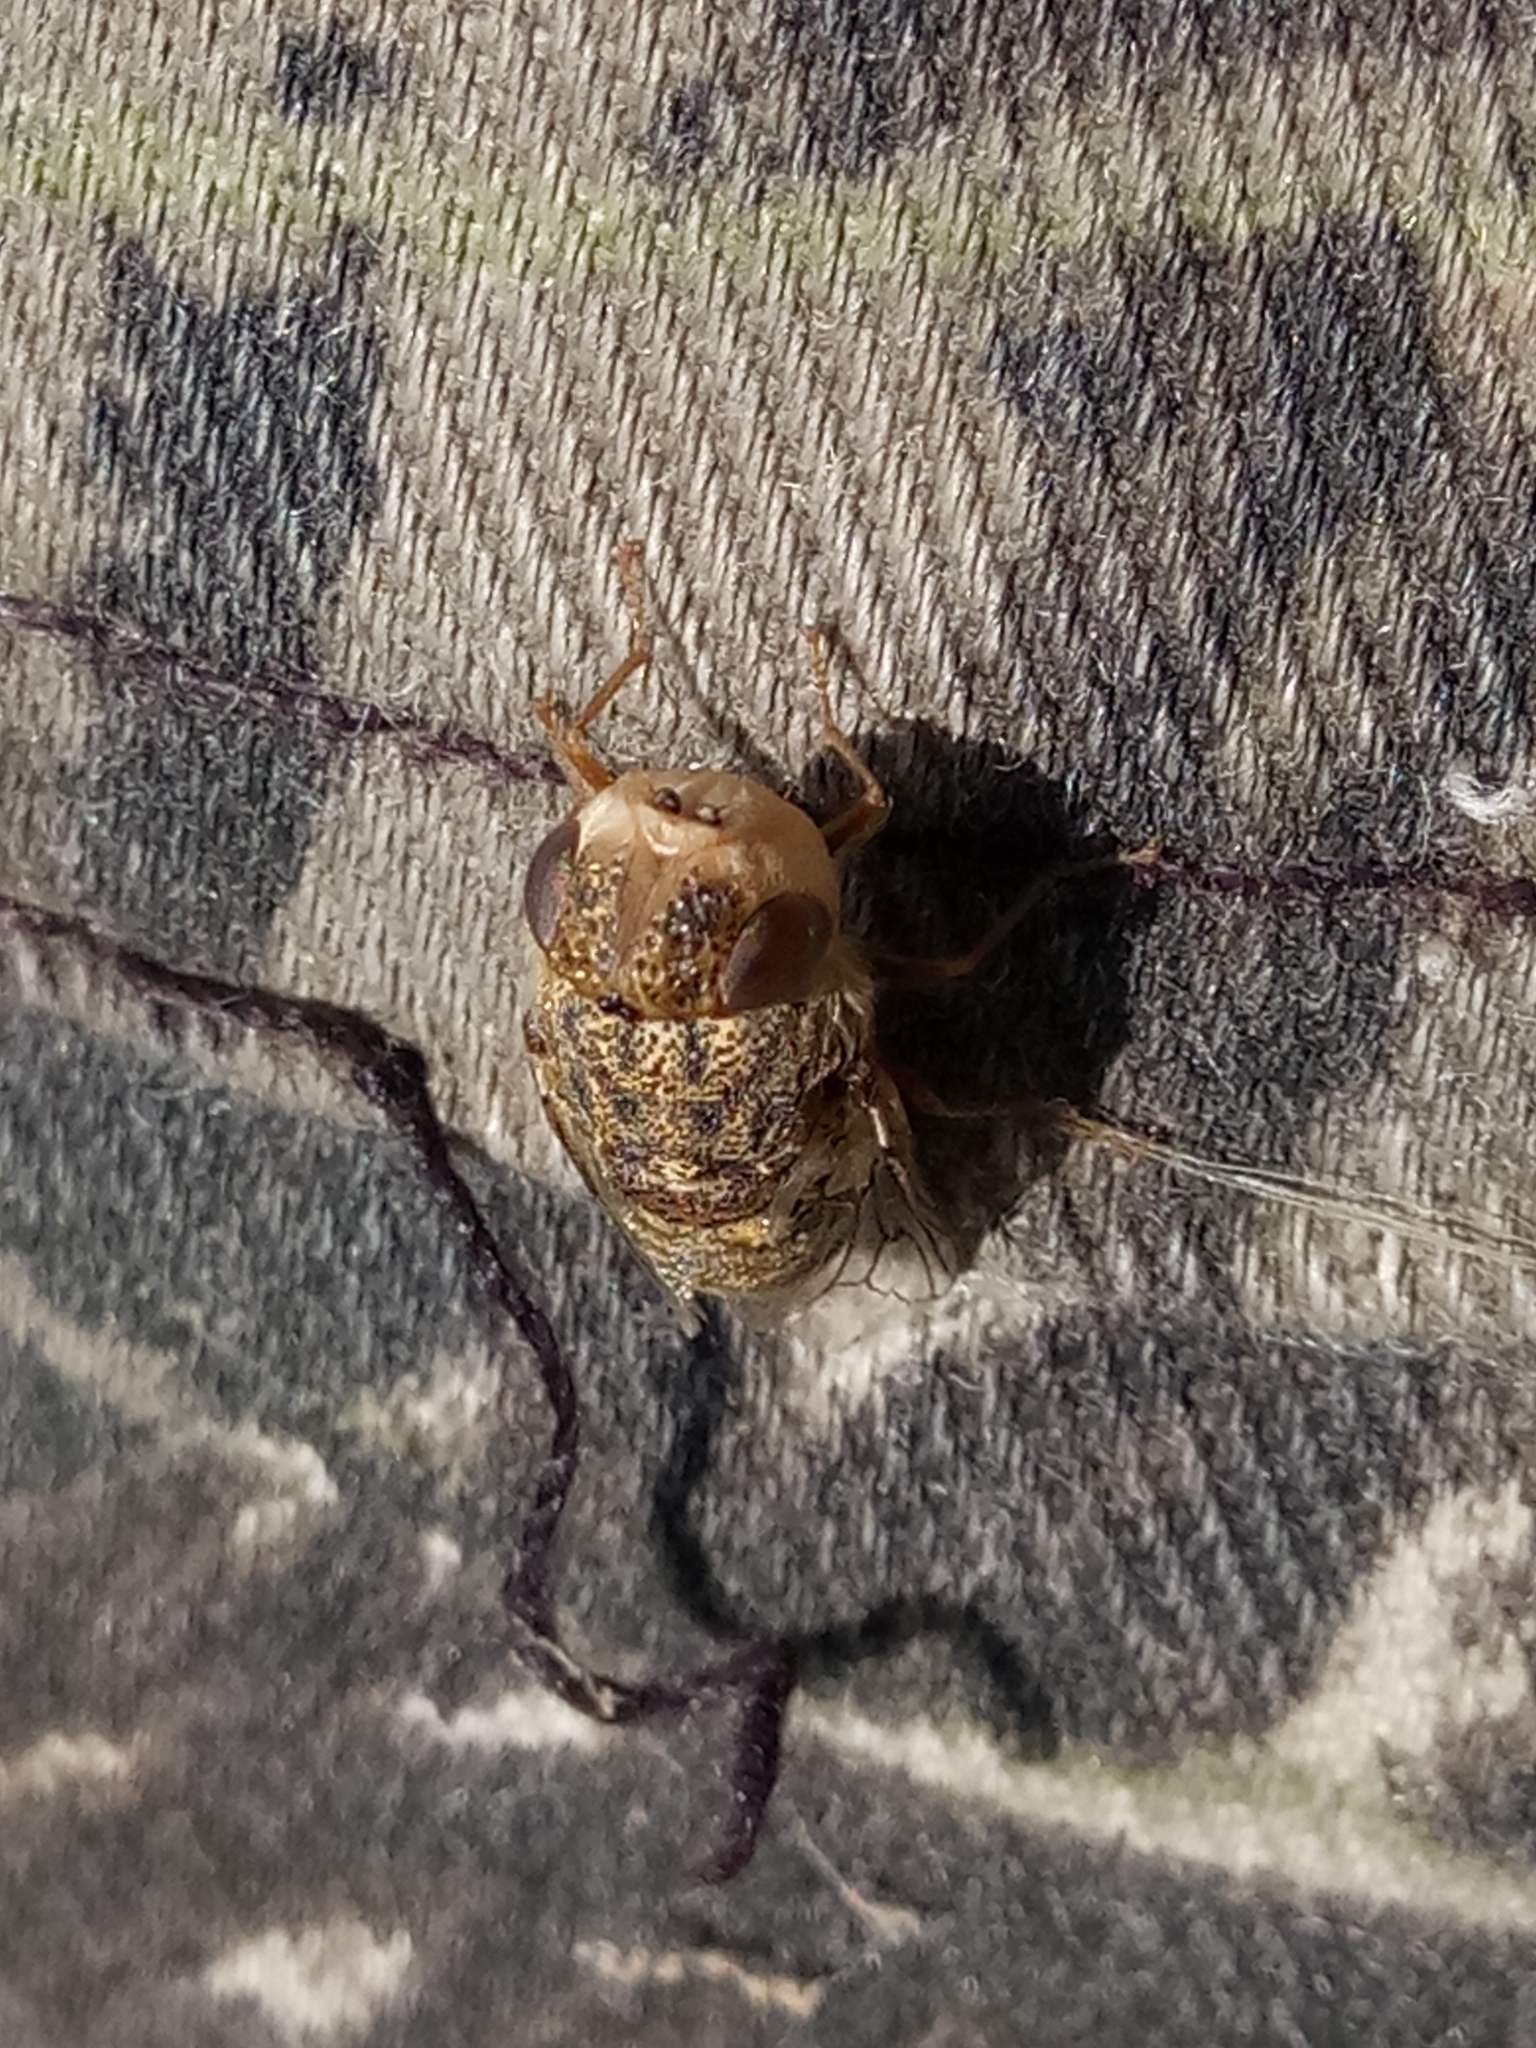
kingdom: Animalia
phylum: Arthropoda
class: Insecta
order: Diptera
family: Oestridae
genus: Oestrus
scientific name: Oestrus ovis
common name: Sheep botfly
